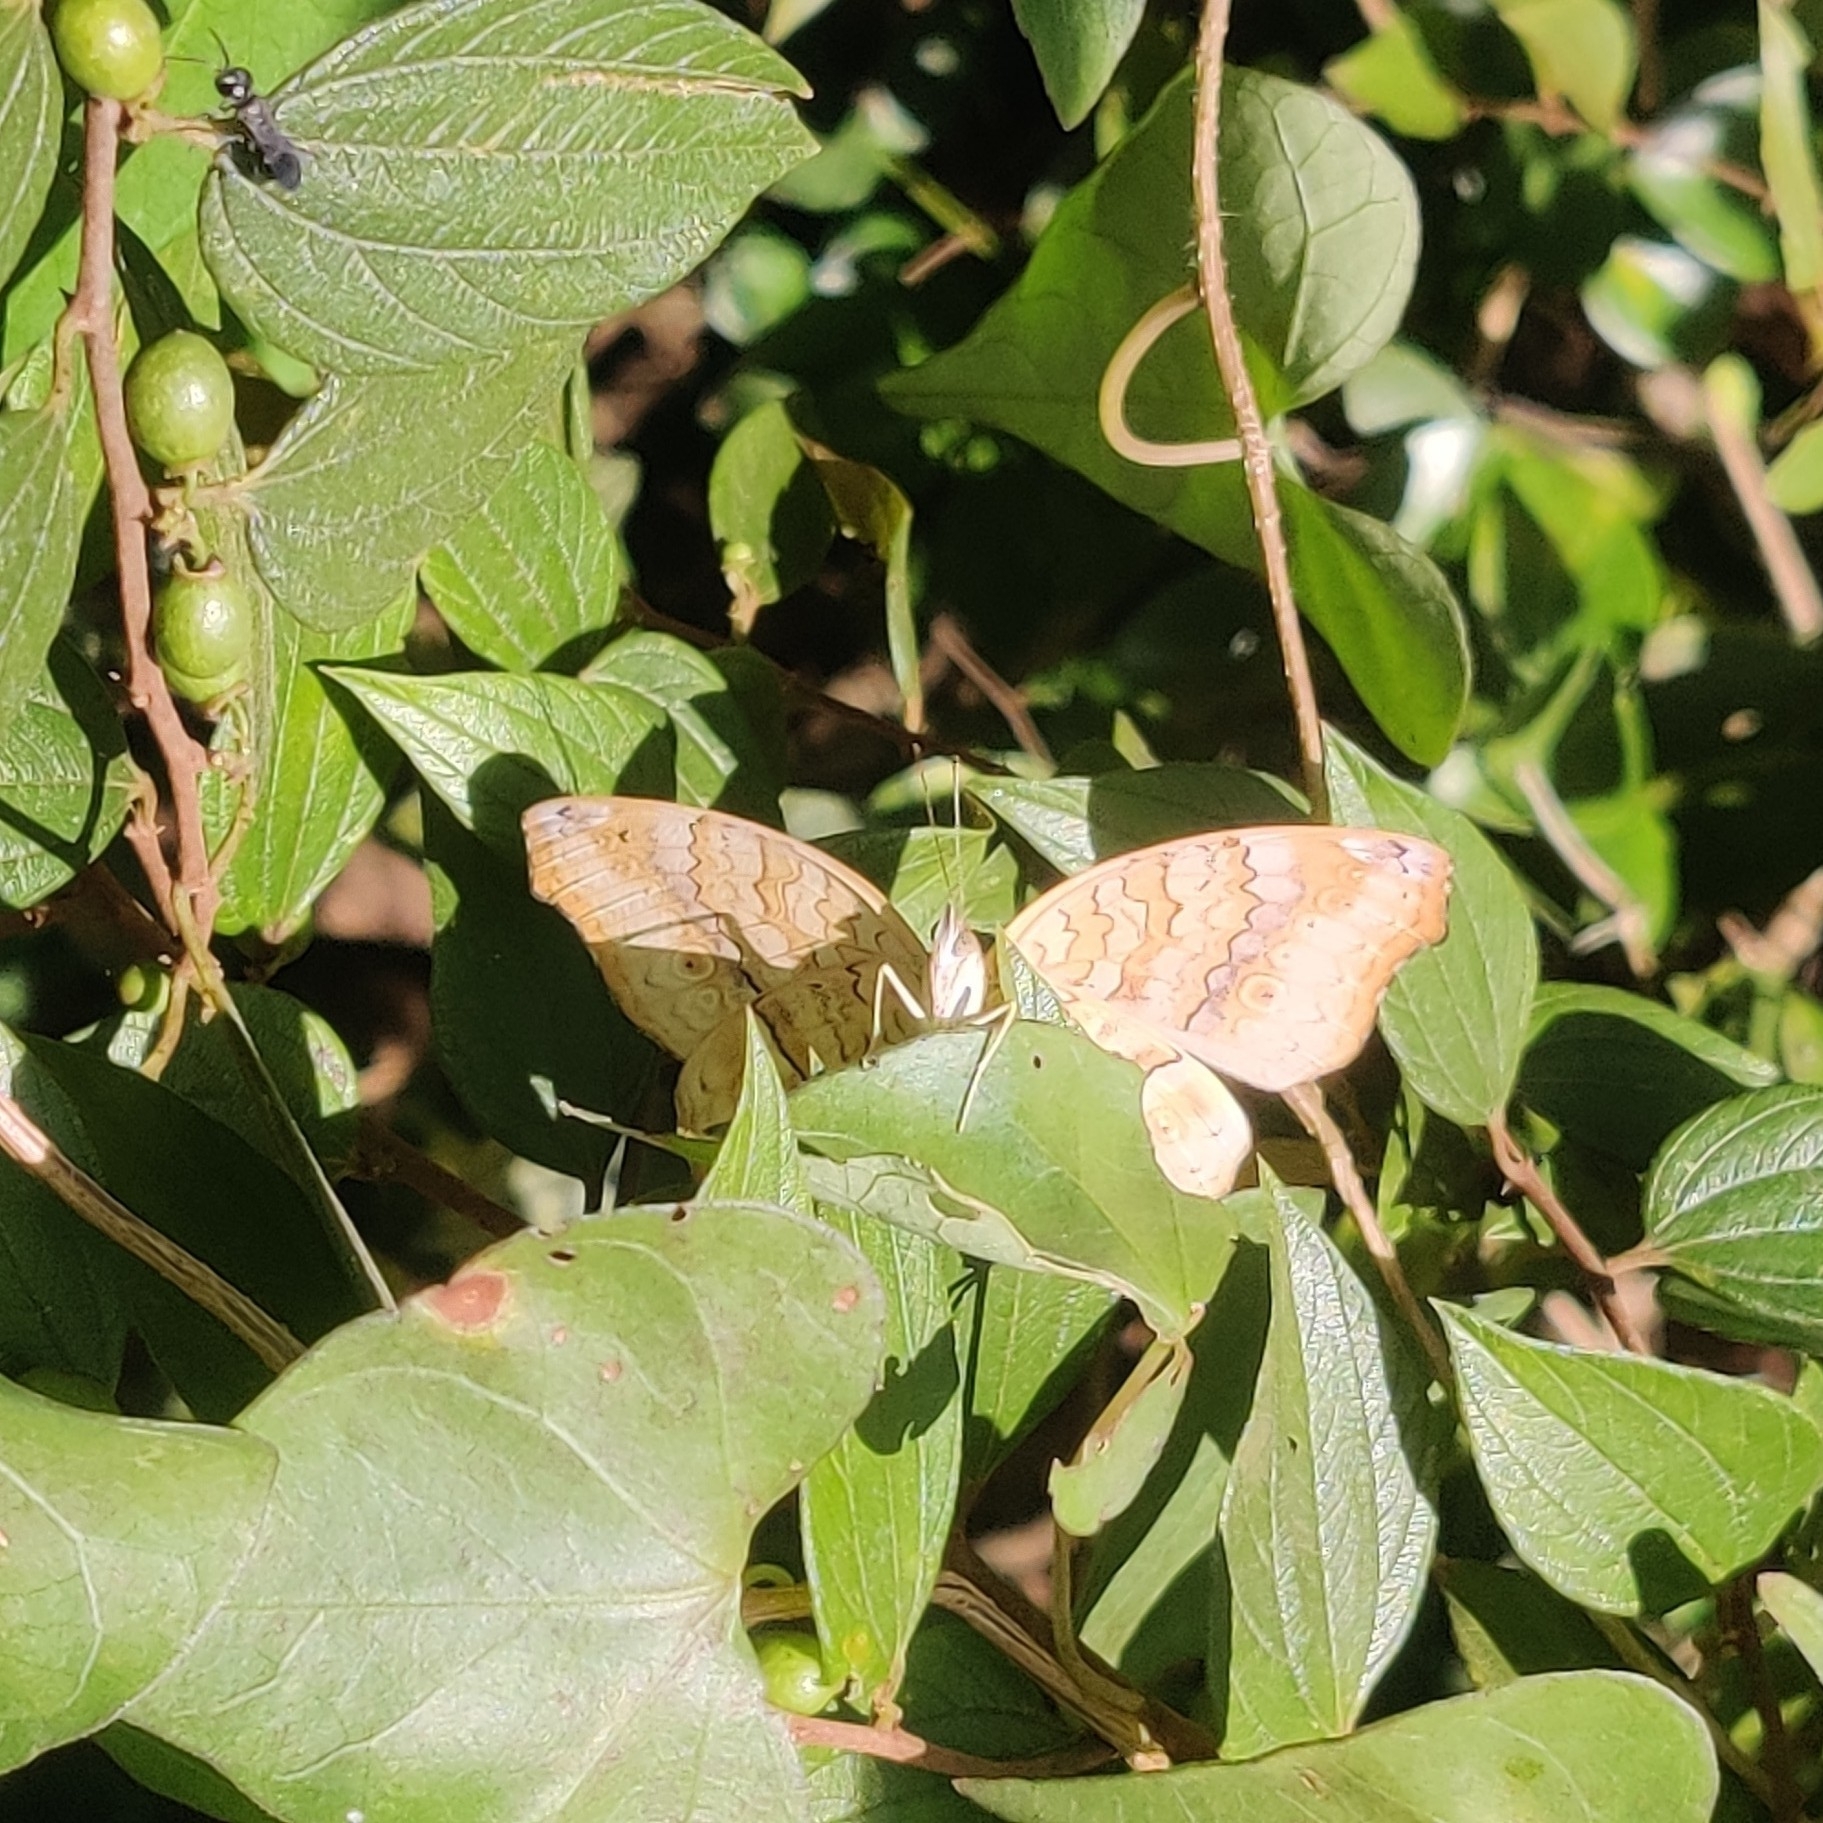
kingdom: Animalia
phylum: Arthropoda
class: Insecta
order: Lepidoptera
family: Nymphalidae
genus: Junonia
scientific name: Junonia atlites
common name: Grey pansy
